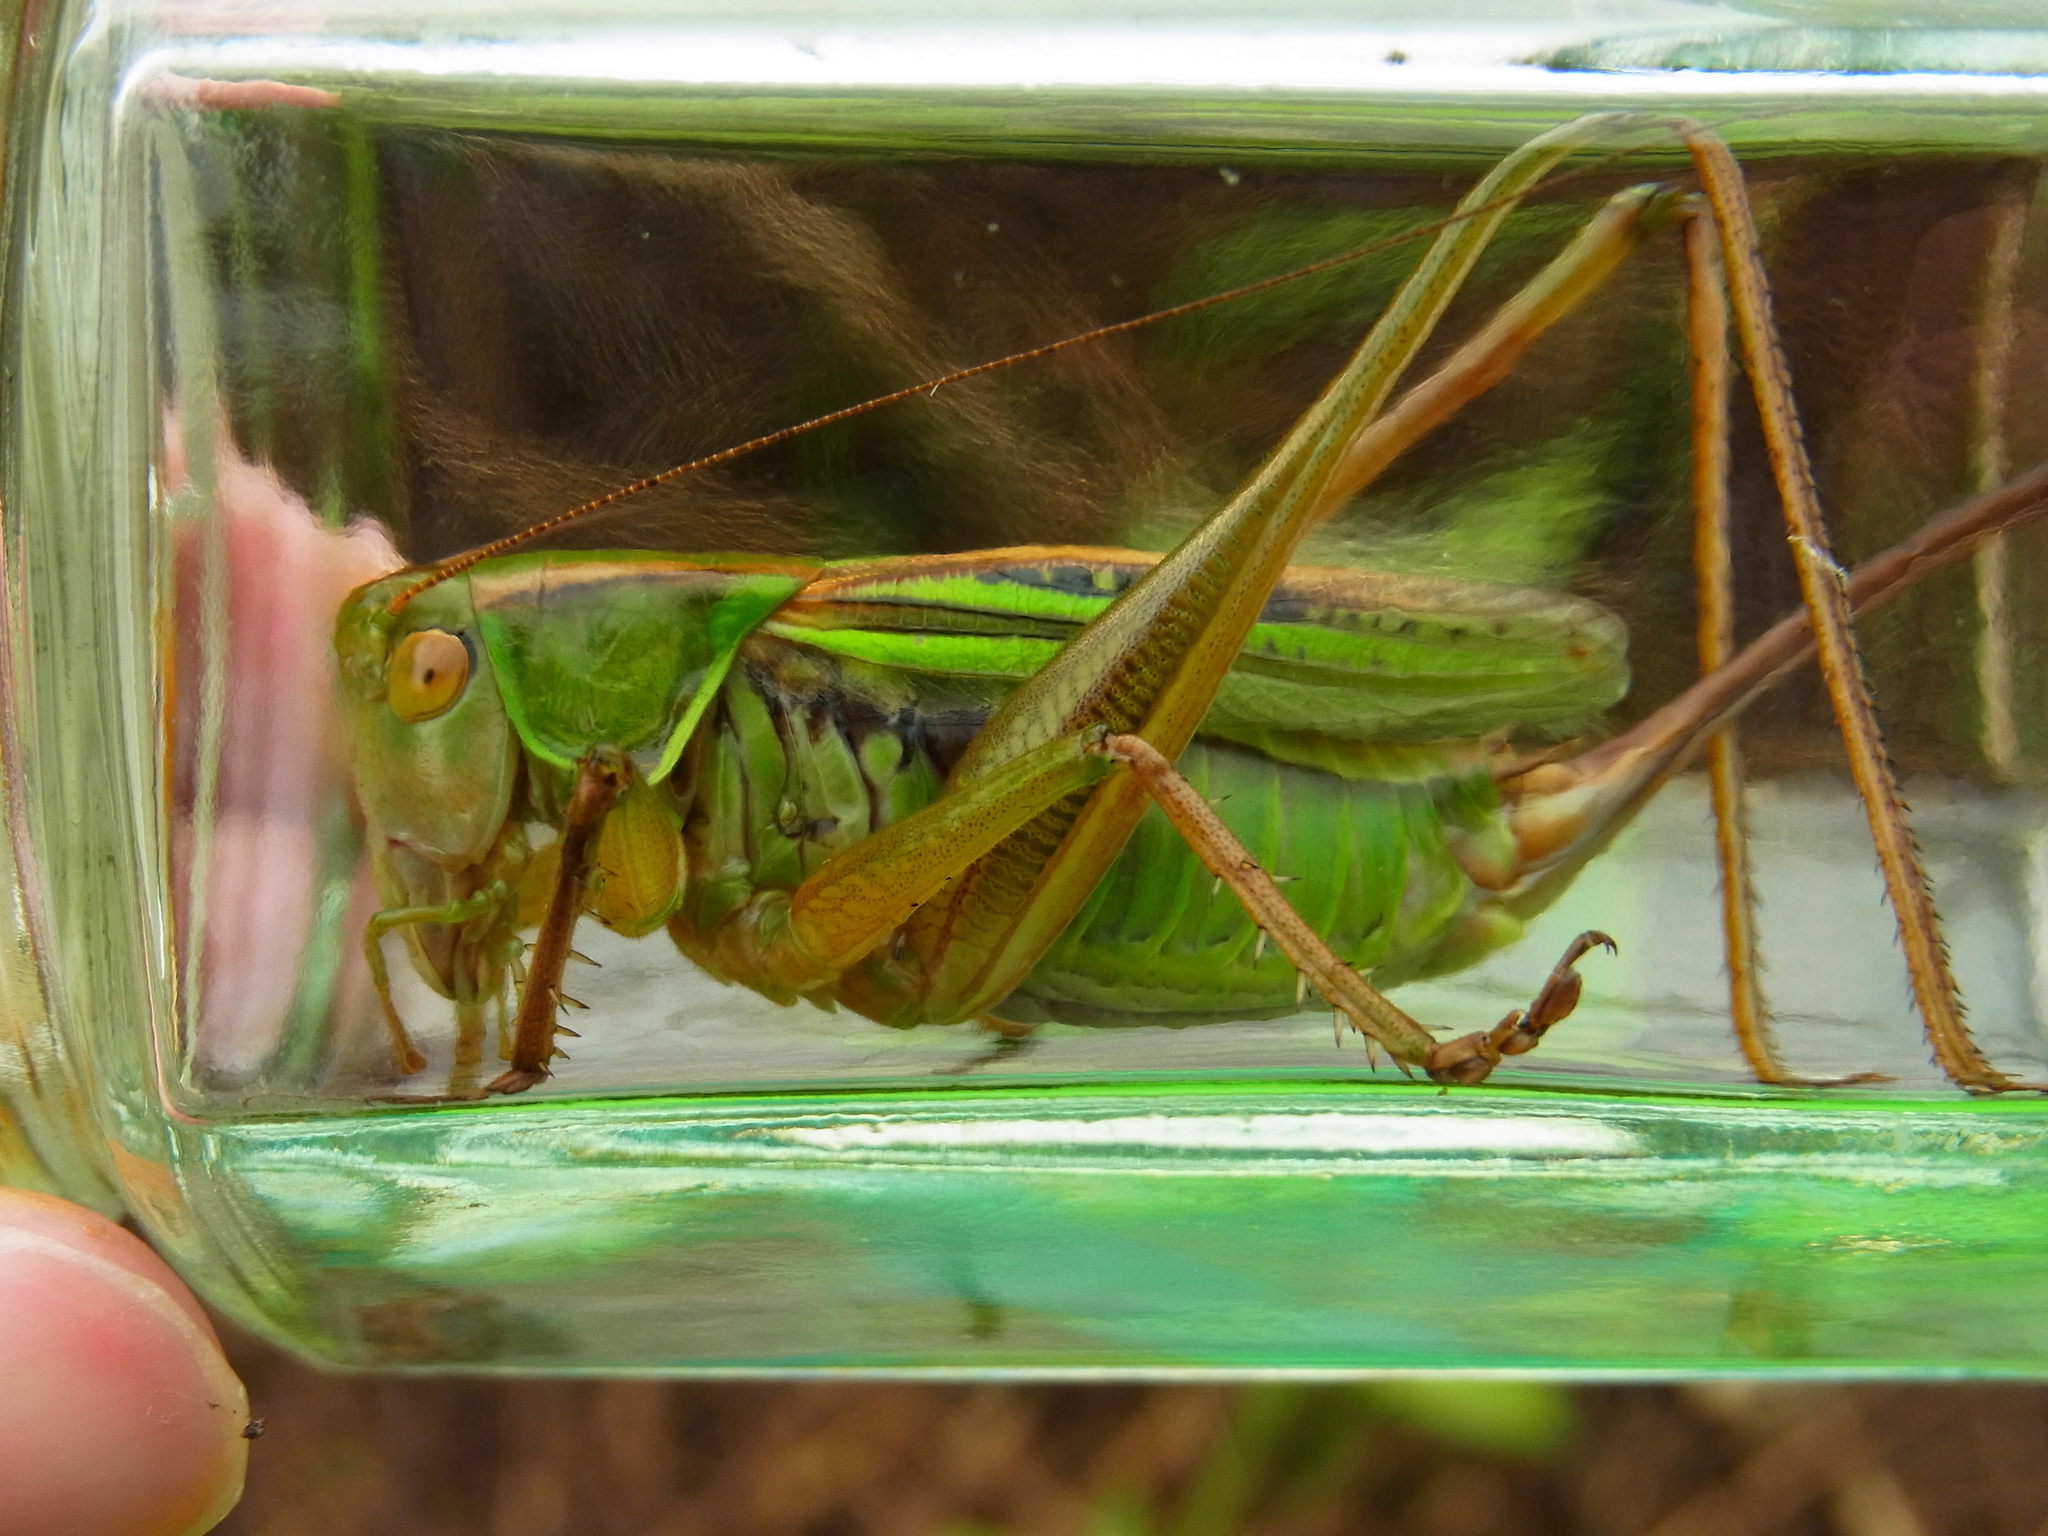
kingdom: Animalia
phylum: Arthropoda
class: Insecta
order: Orthoptera
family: Tettigoniidae
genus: Gampsocleis
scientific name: Gampsocleis buergeri
